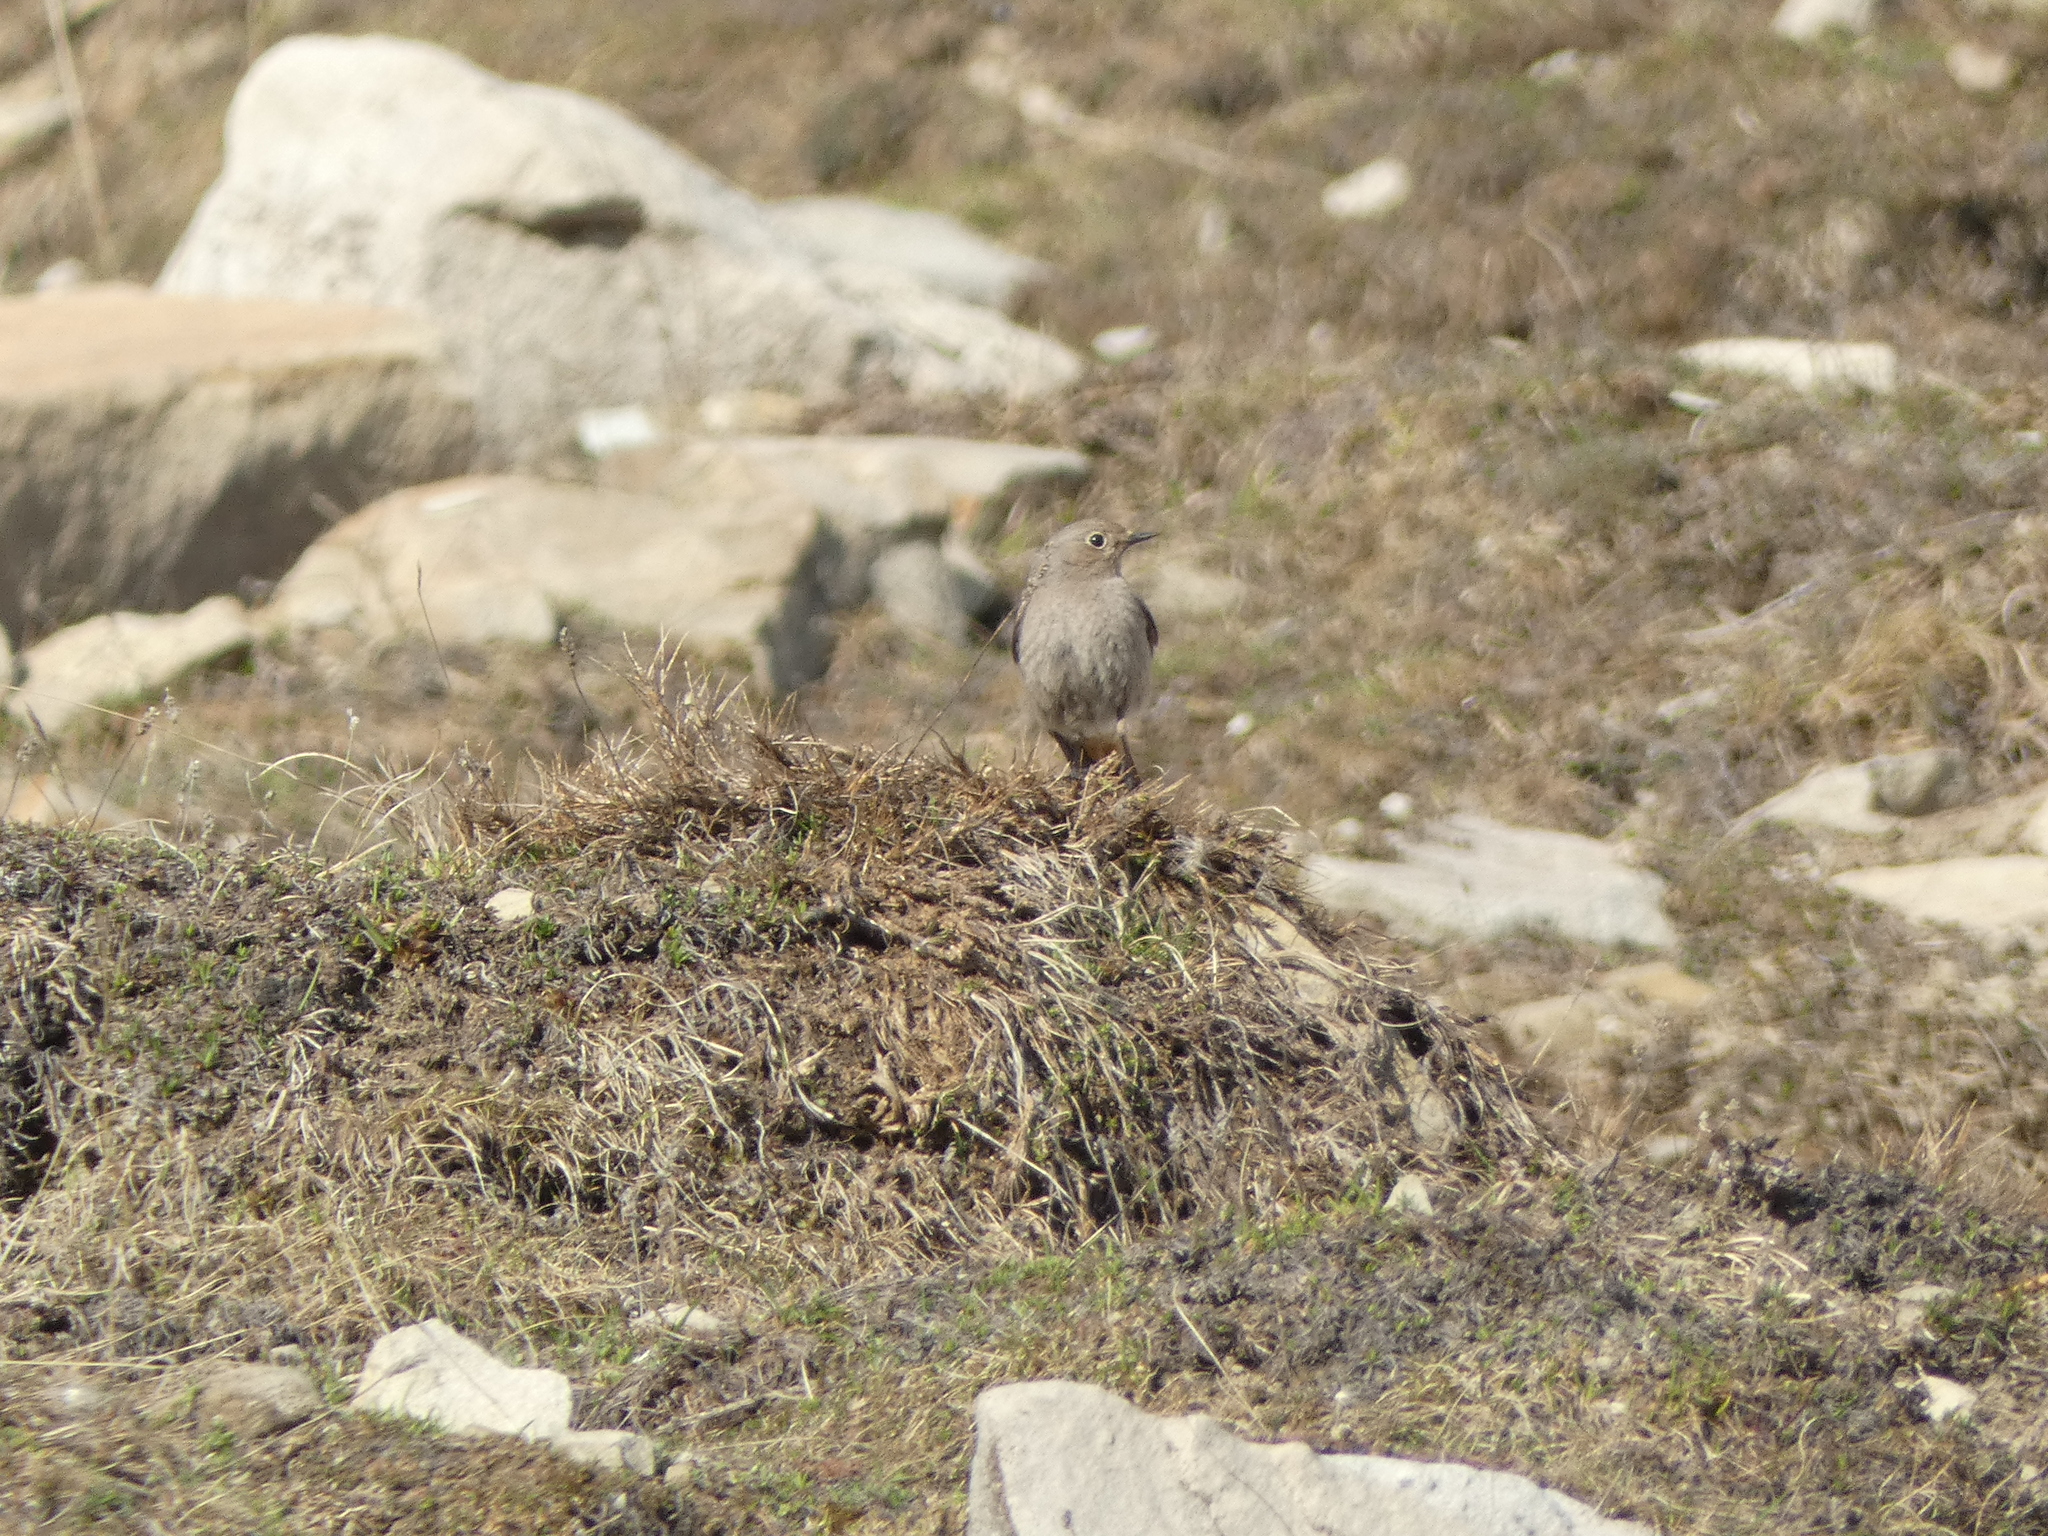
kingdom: Animalia
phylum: Chordata
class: Aves
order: Passeriformes
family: Muscicapidae
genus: Phoenicurus
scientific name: Phoenicurus ochruros
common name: Black redstart
